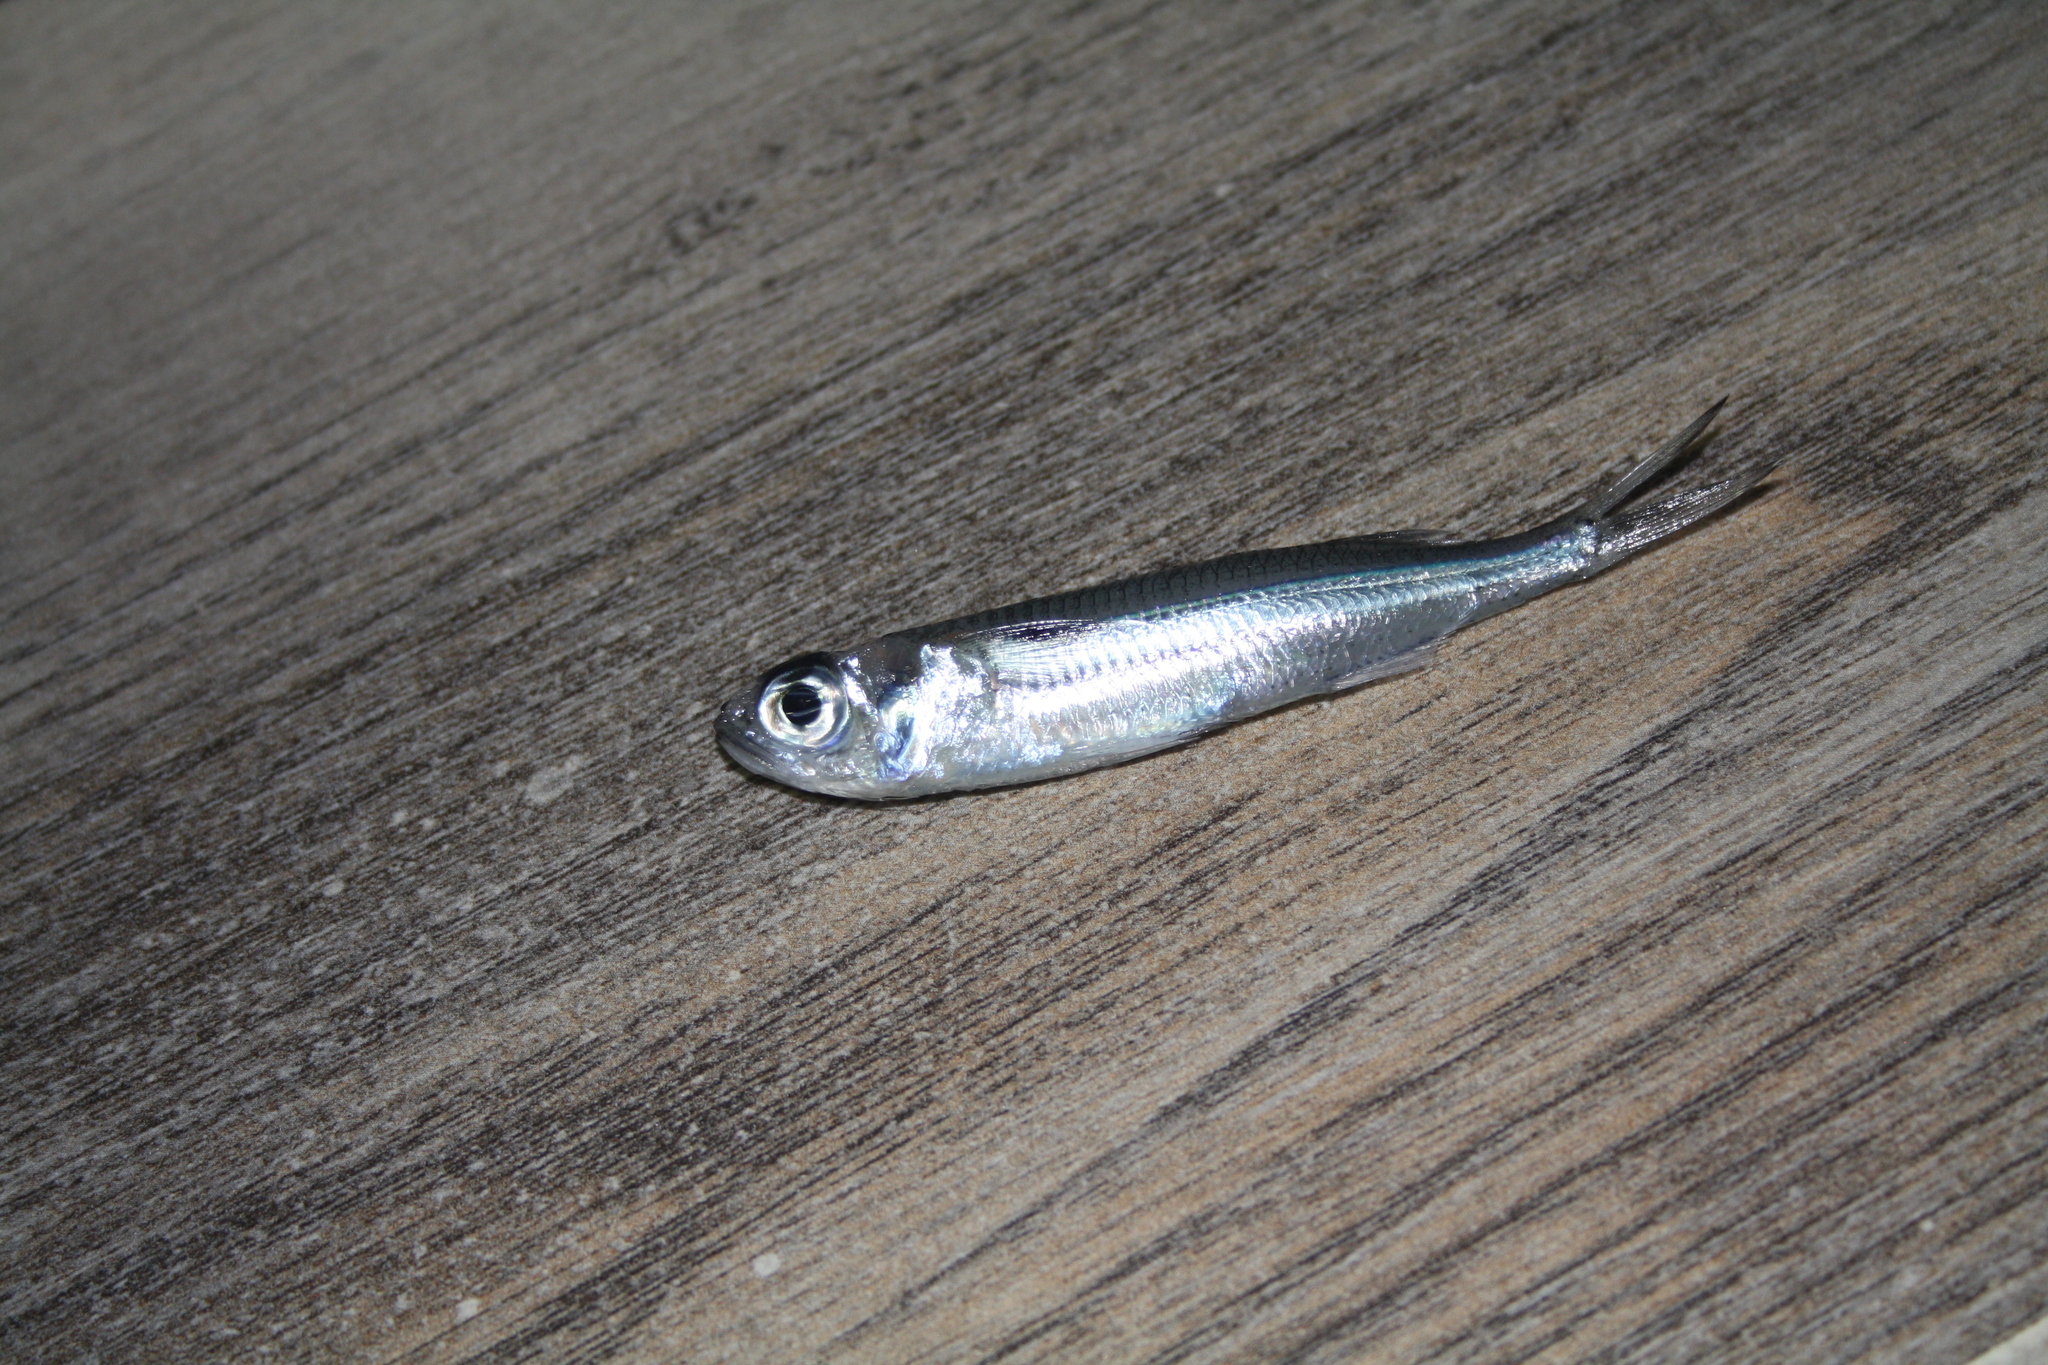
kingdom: Animalia
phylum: Chordata
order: Atheriniformes
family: Atherinidae
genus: Atherinomorus
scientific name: Atherinomorus forskalii
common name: Red sea hardyhead silverside
